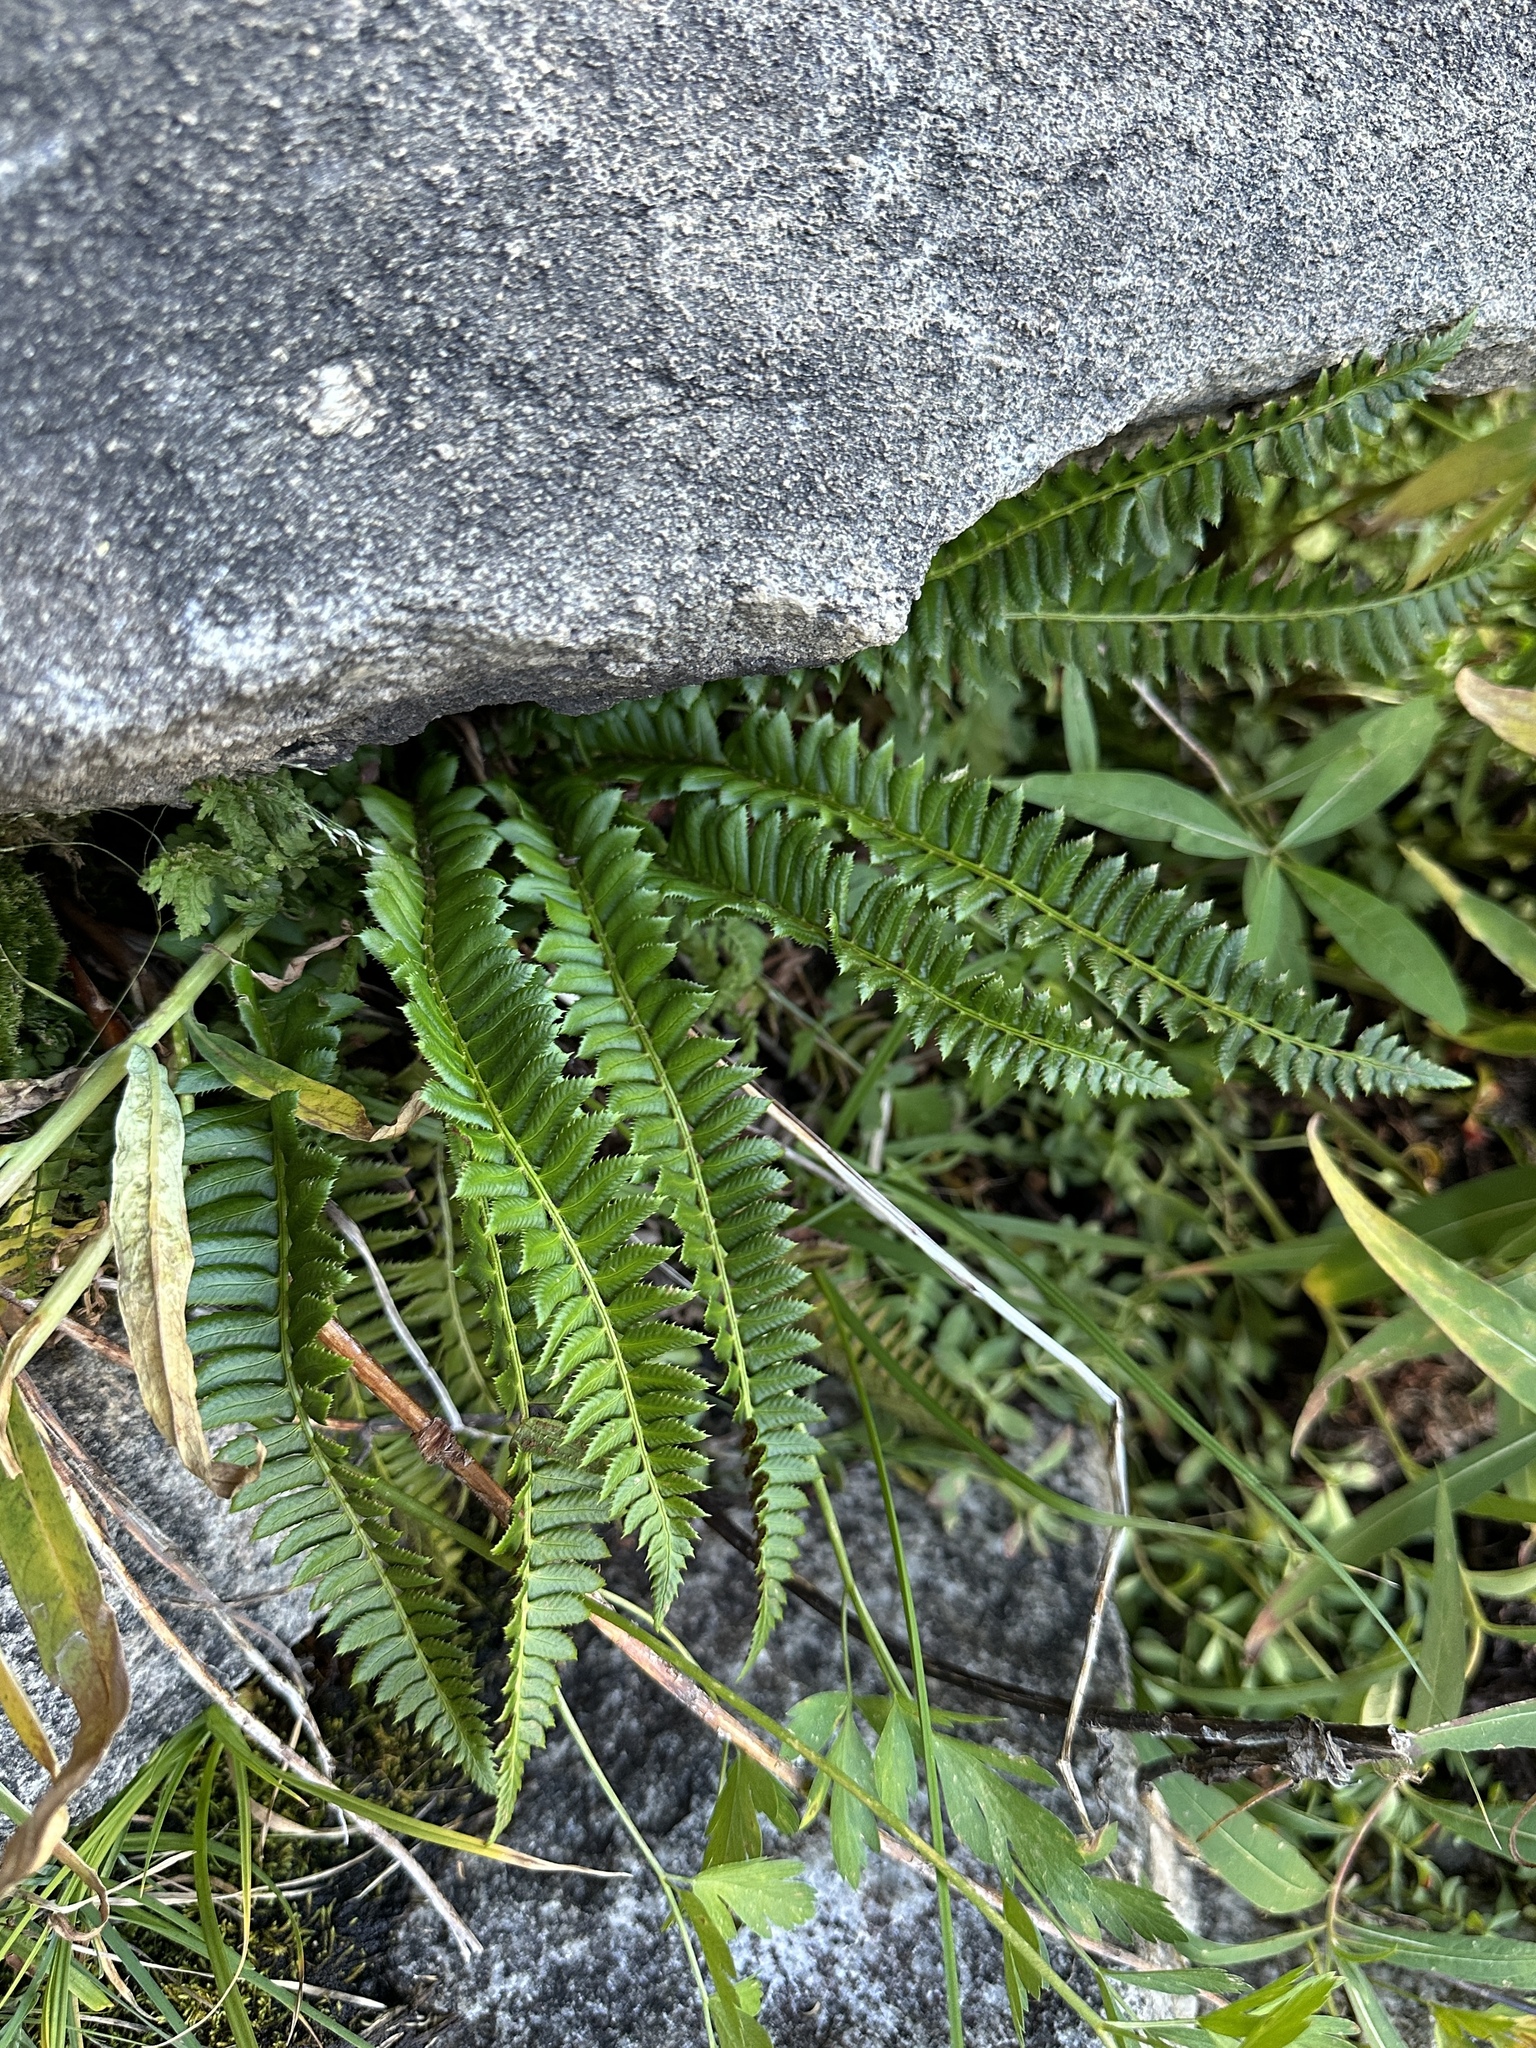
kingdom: Plantae
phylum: Tracheophyta
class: Polypodiopsida
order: Polypodiales
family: Dryopteridaceae
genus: Polystichum
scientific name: Polystichum lonchitis
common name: Holly fern
